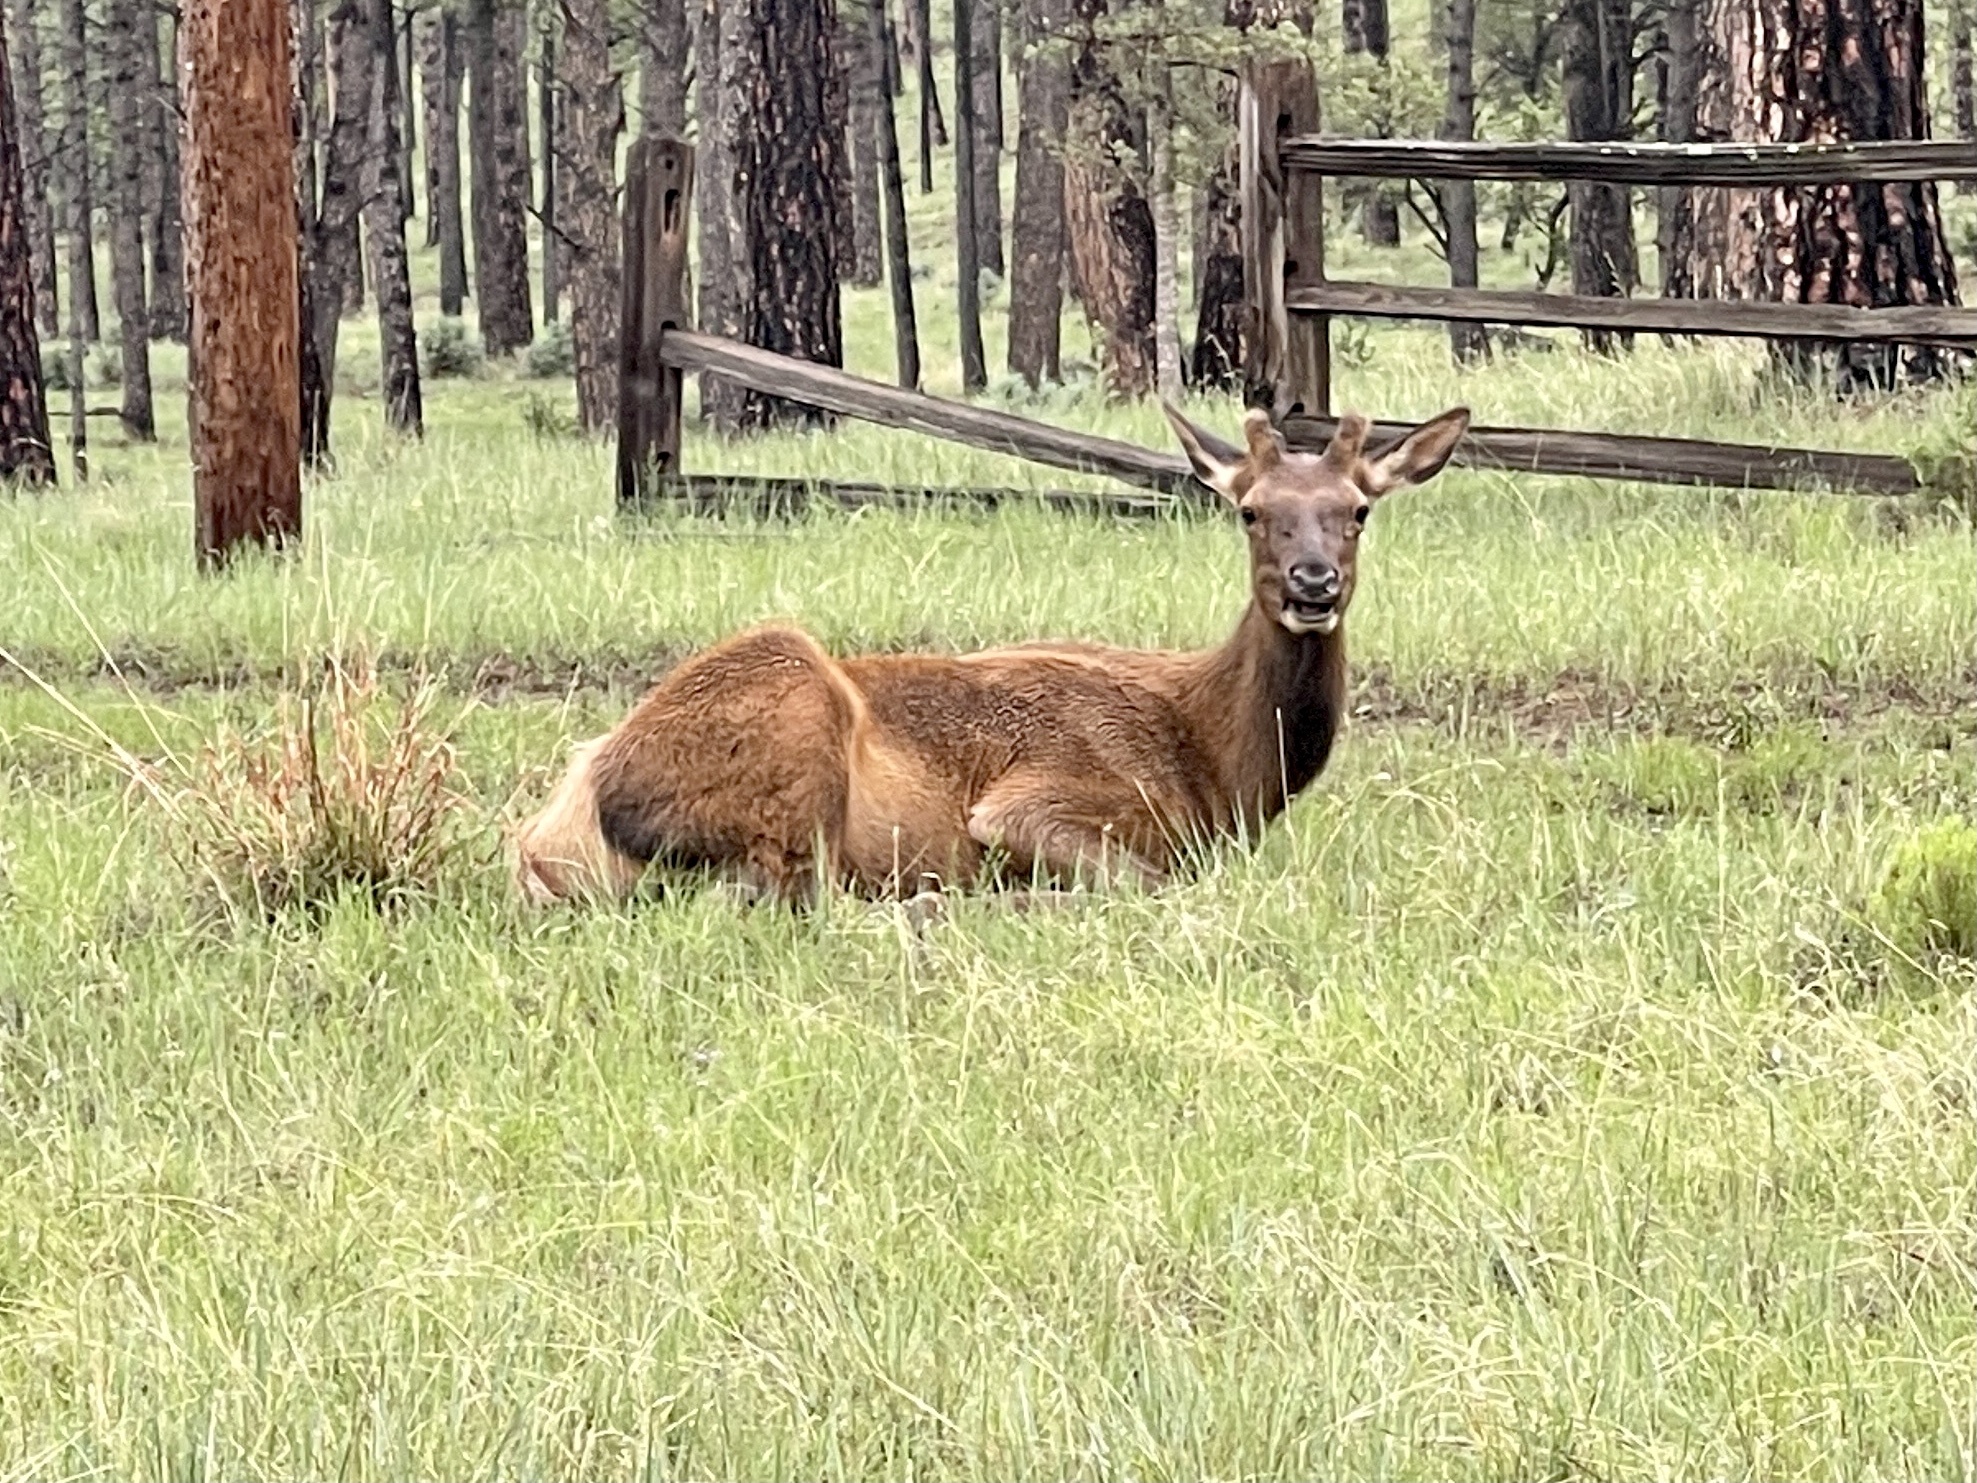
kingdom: Animalia
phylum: Chordata
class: Mammalia
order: Artiodactyla
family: Cervidae
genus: Cervus
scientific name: Cervus elaphus
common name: Red deer
